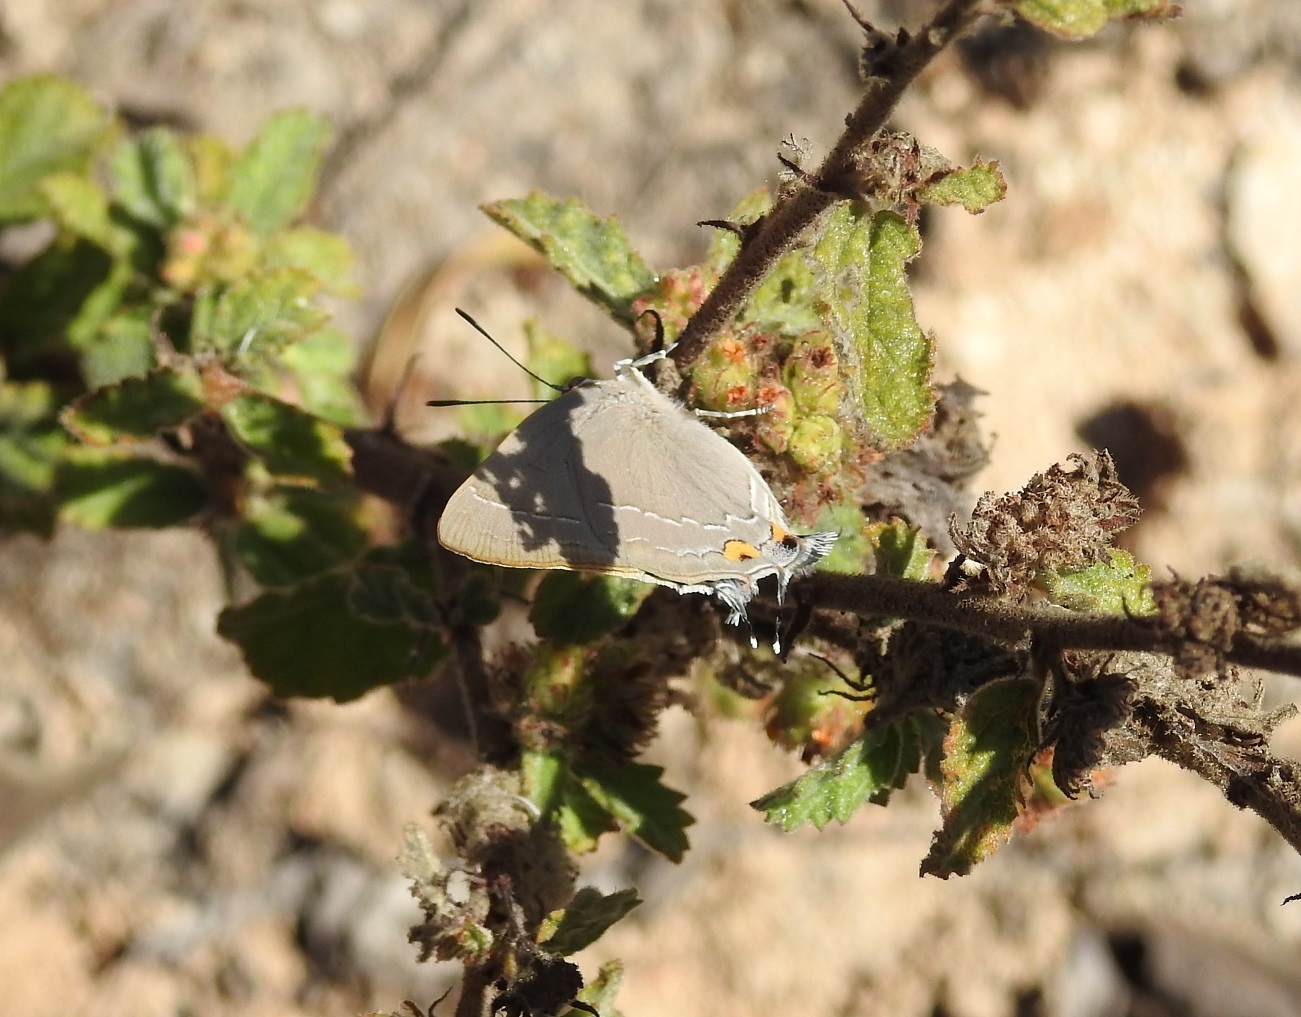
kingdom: Animalia
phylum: Arthropoda
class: Insecta
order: Lepidoptera
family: Lycaenidae
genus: Rekoa
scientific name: Rekoa
